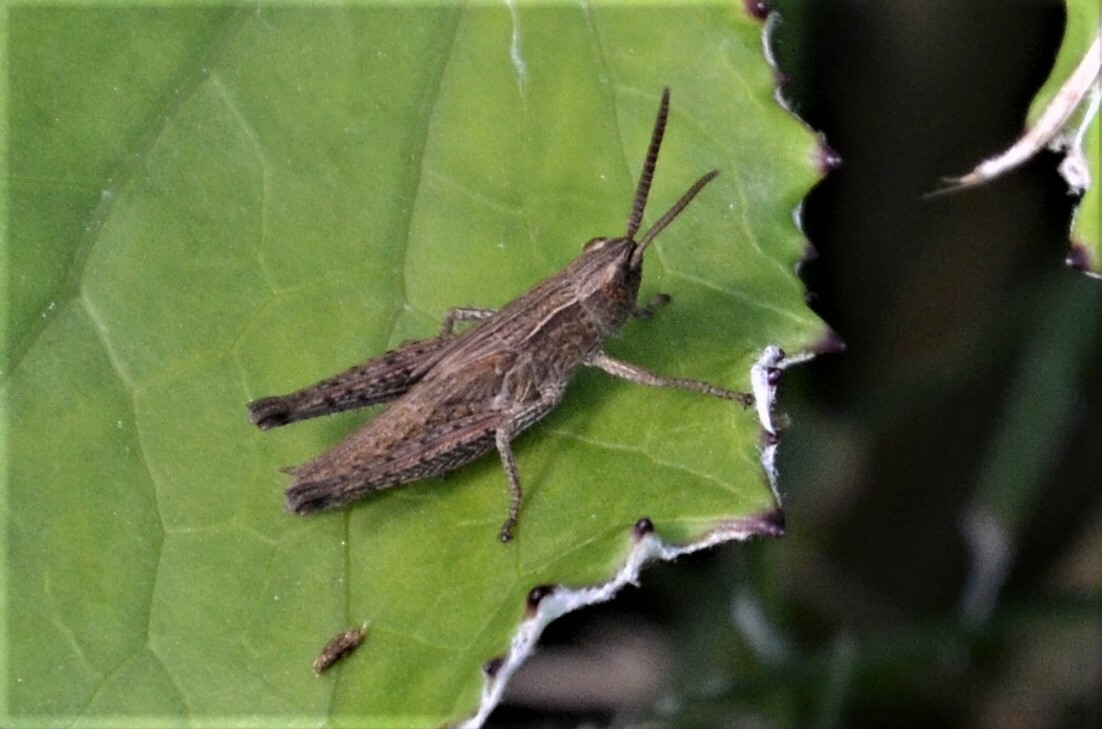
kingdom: Animalia
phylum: Arthropoda
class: Insecta
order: Orthoptera
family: Acrididae
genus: Chorthippus
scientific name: Chorthippus dorsatus
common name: Steppe grasshopper
